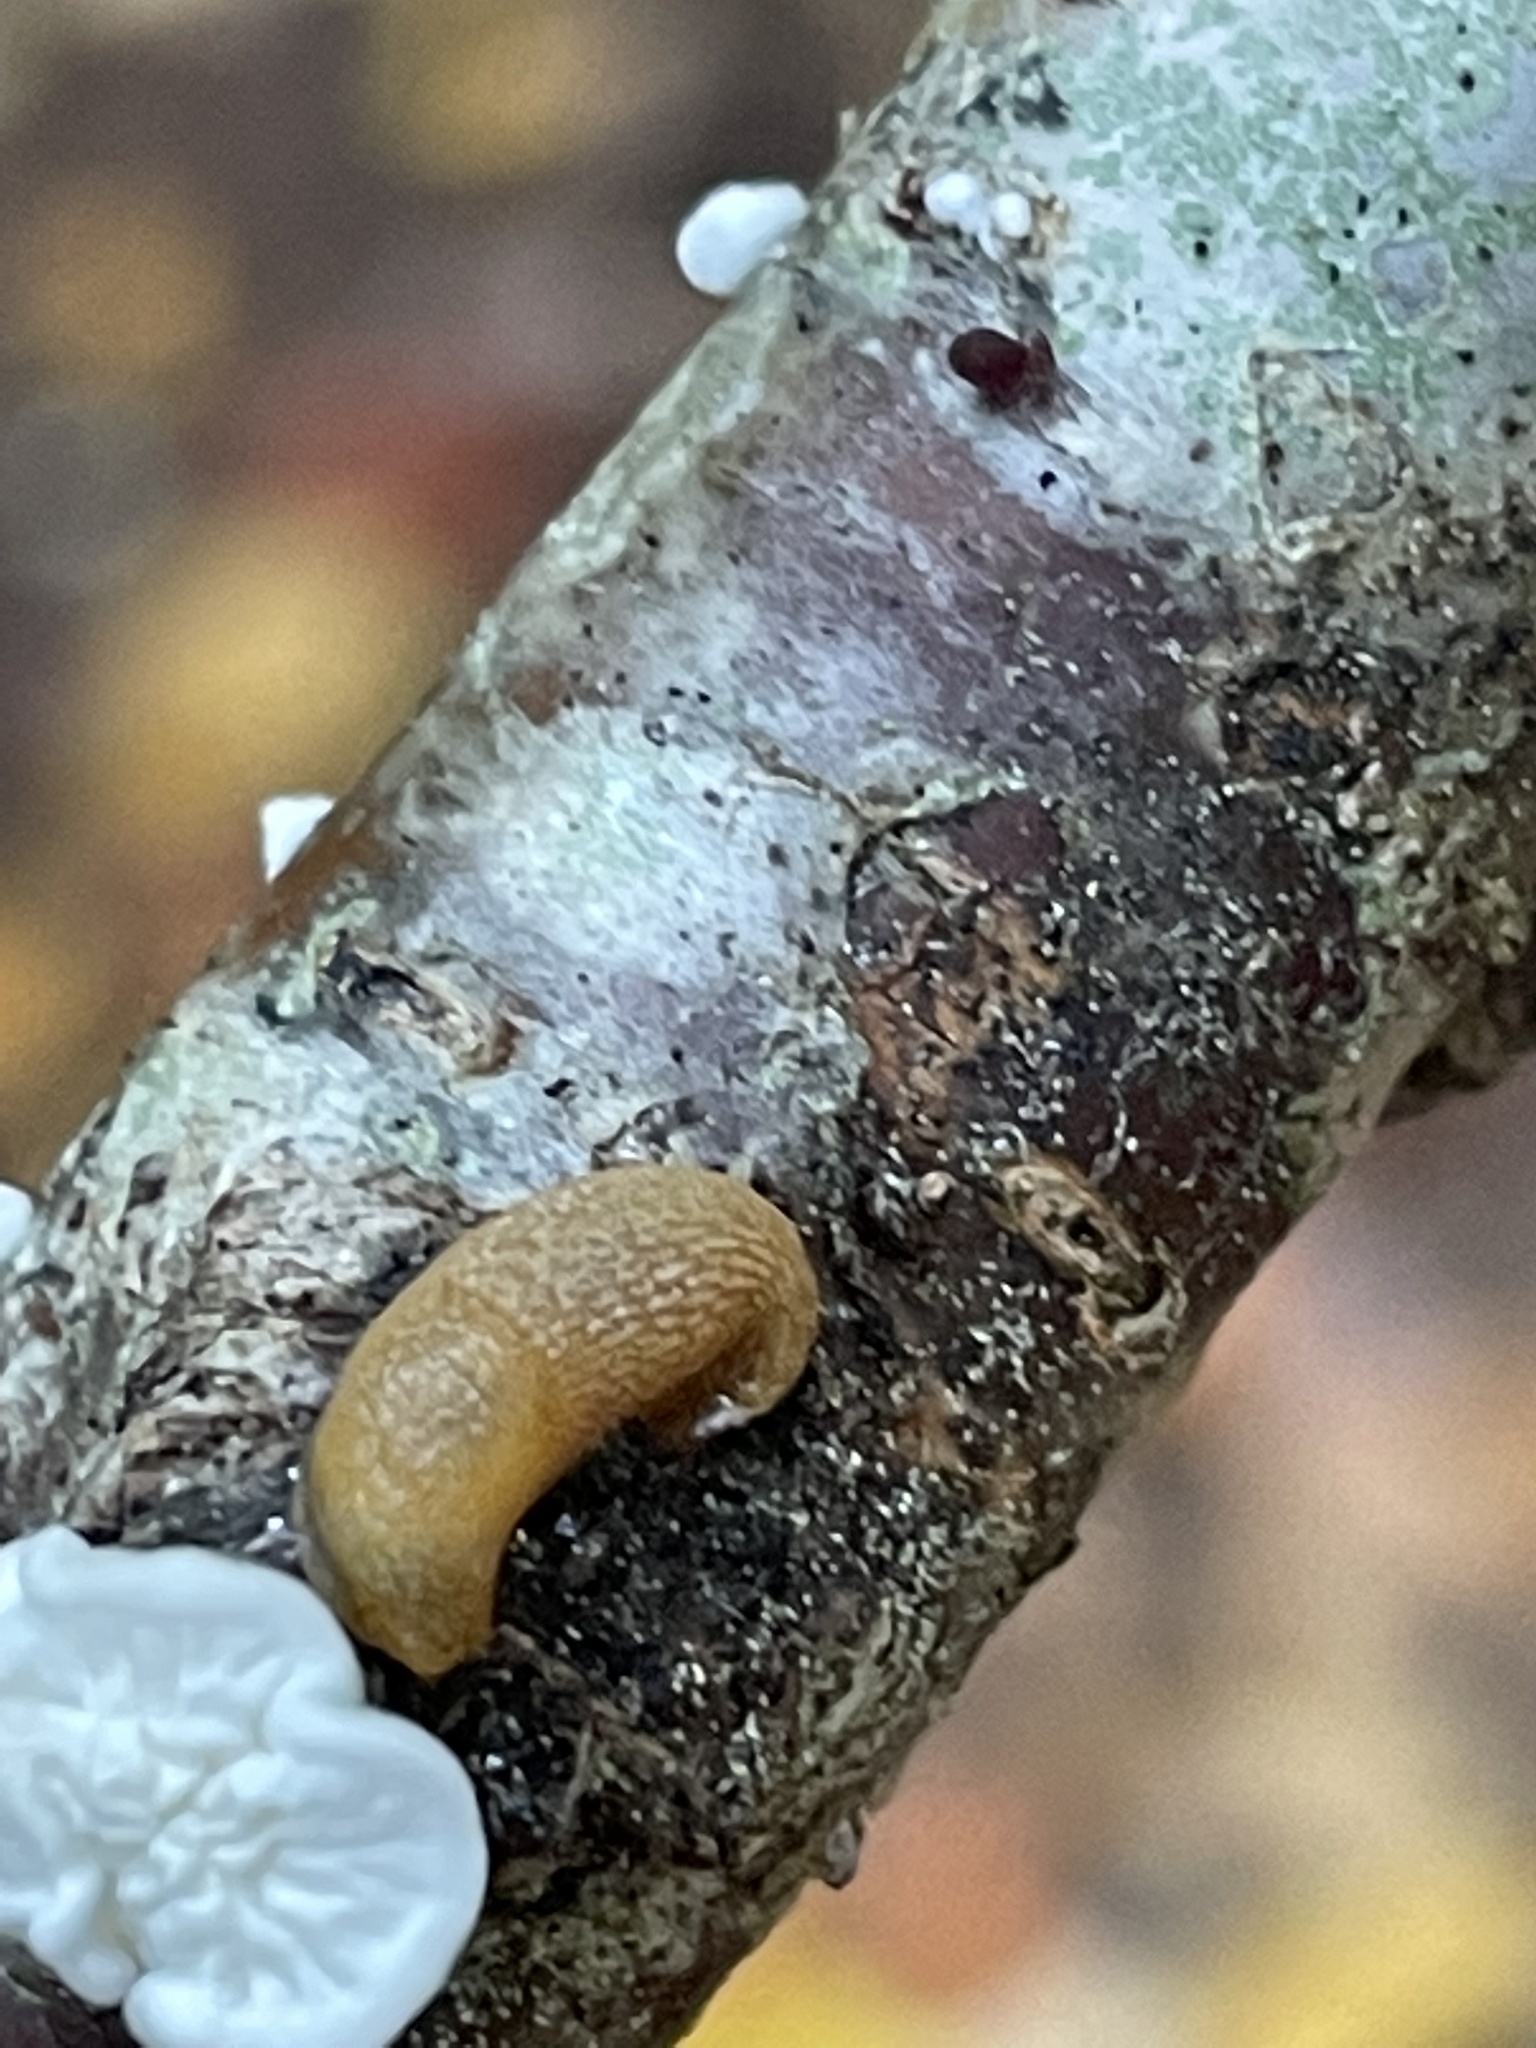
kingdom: Animalia
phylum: Mollusca
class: Gastropoda
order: Stylommatophora
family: Arionidae
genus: Arion
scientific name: Arion subfuscus
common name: Dusky arion
